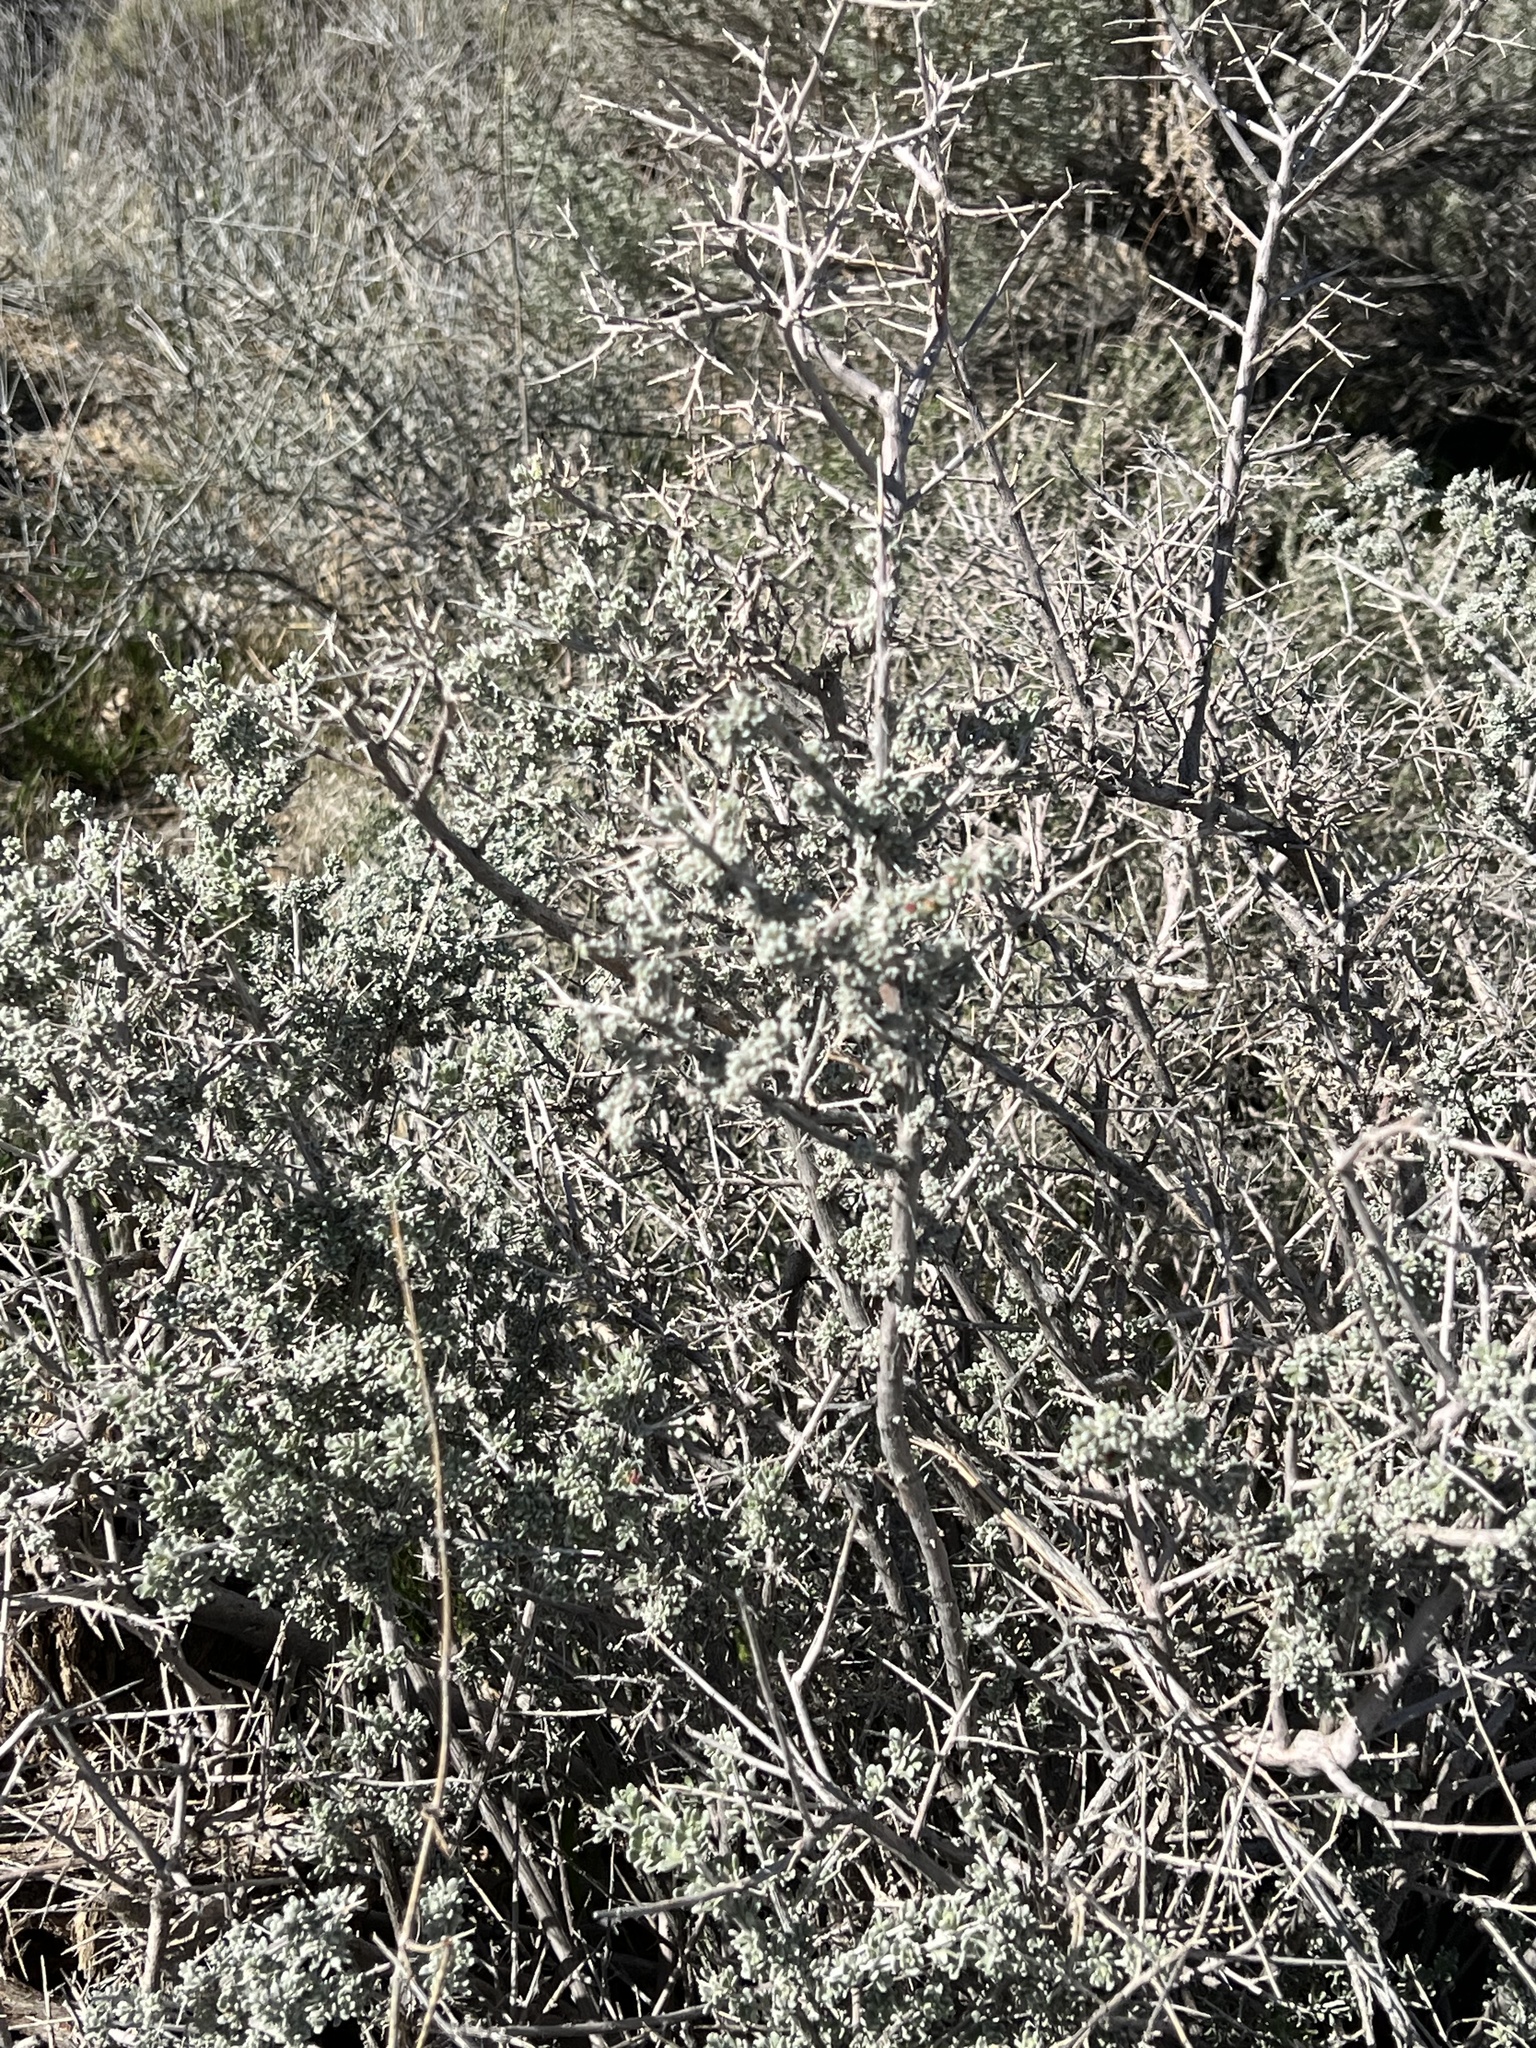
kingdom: Plantae
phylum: Tracheophyta
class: Magnoliopsida
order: Caryophyllales
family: Amaranthaceae
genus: Grayia
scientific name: Grayia spinosa
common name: Spiny hopsage
